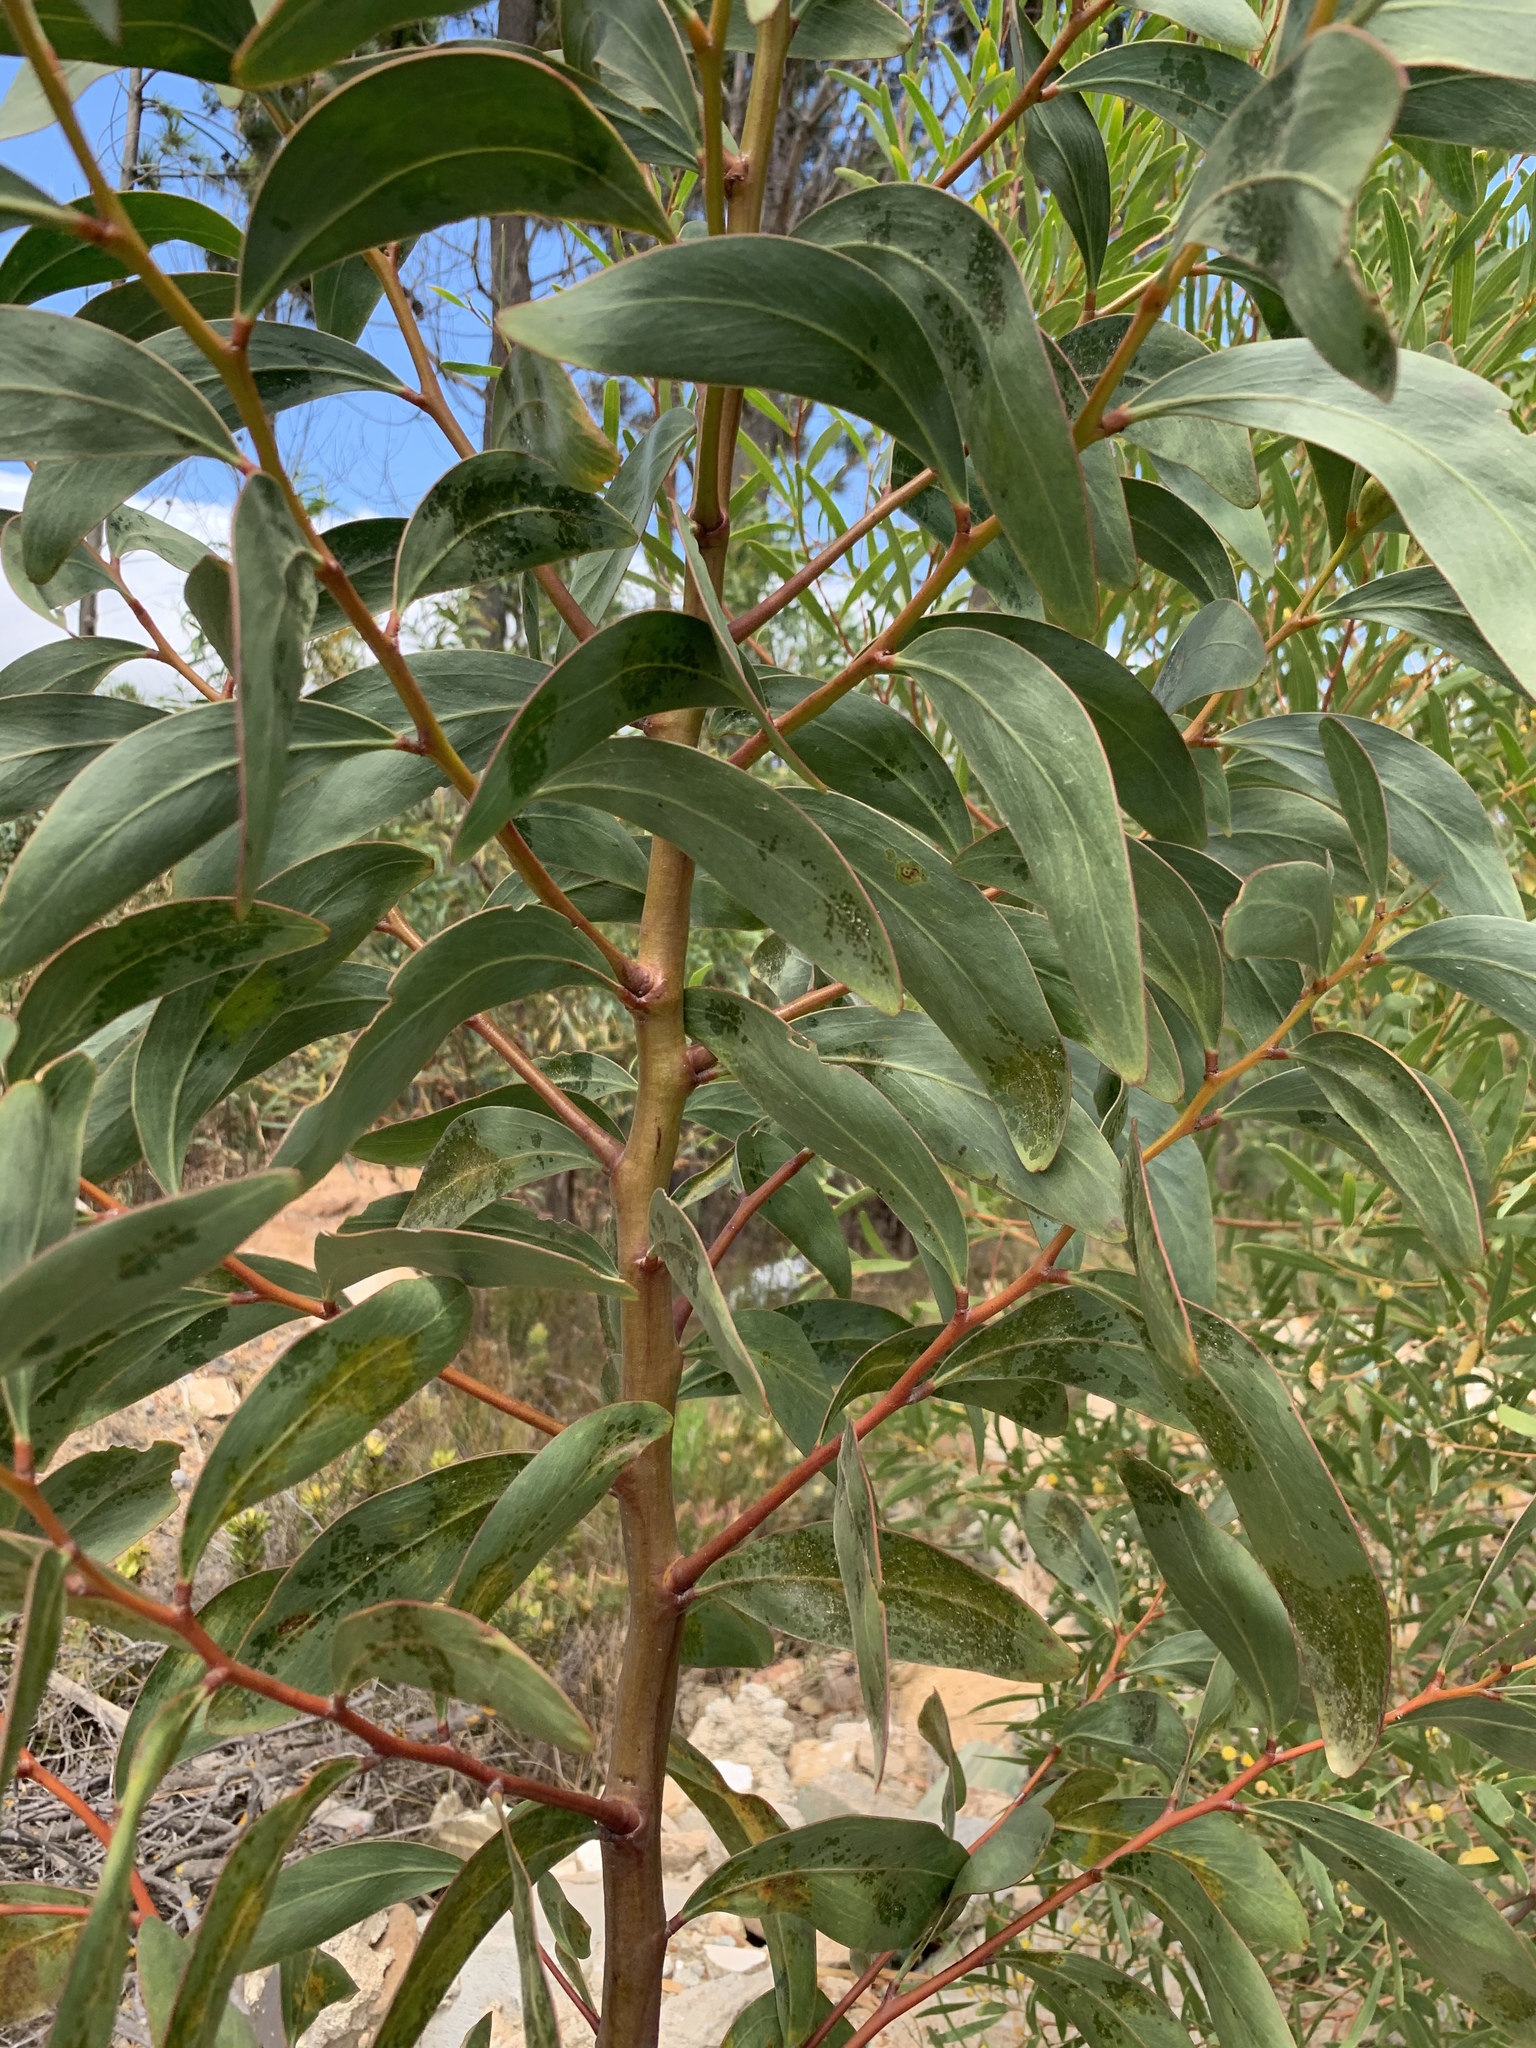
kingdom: Plantae
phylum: Tracheophyta
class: Magnoliopsida
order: Fabales
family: Fabaceae
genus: Acacia
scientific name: Acacia pycnantha
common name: Golden wattle
